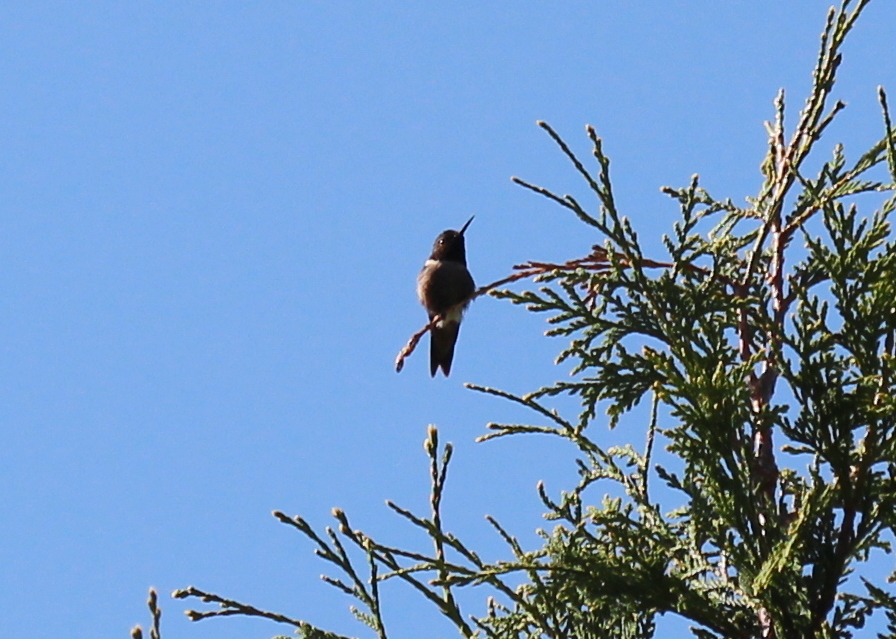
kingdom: Animalia
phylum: Chordata
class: Aves
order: Apodiformes
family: Trochilidae
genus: Archilochus
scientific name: Archilochus colubris
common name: Ruby-throated hummingbird
